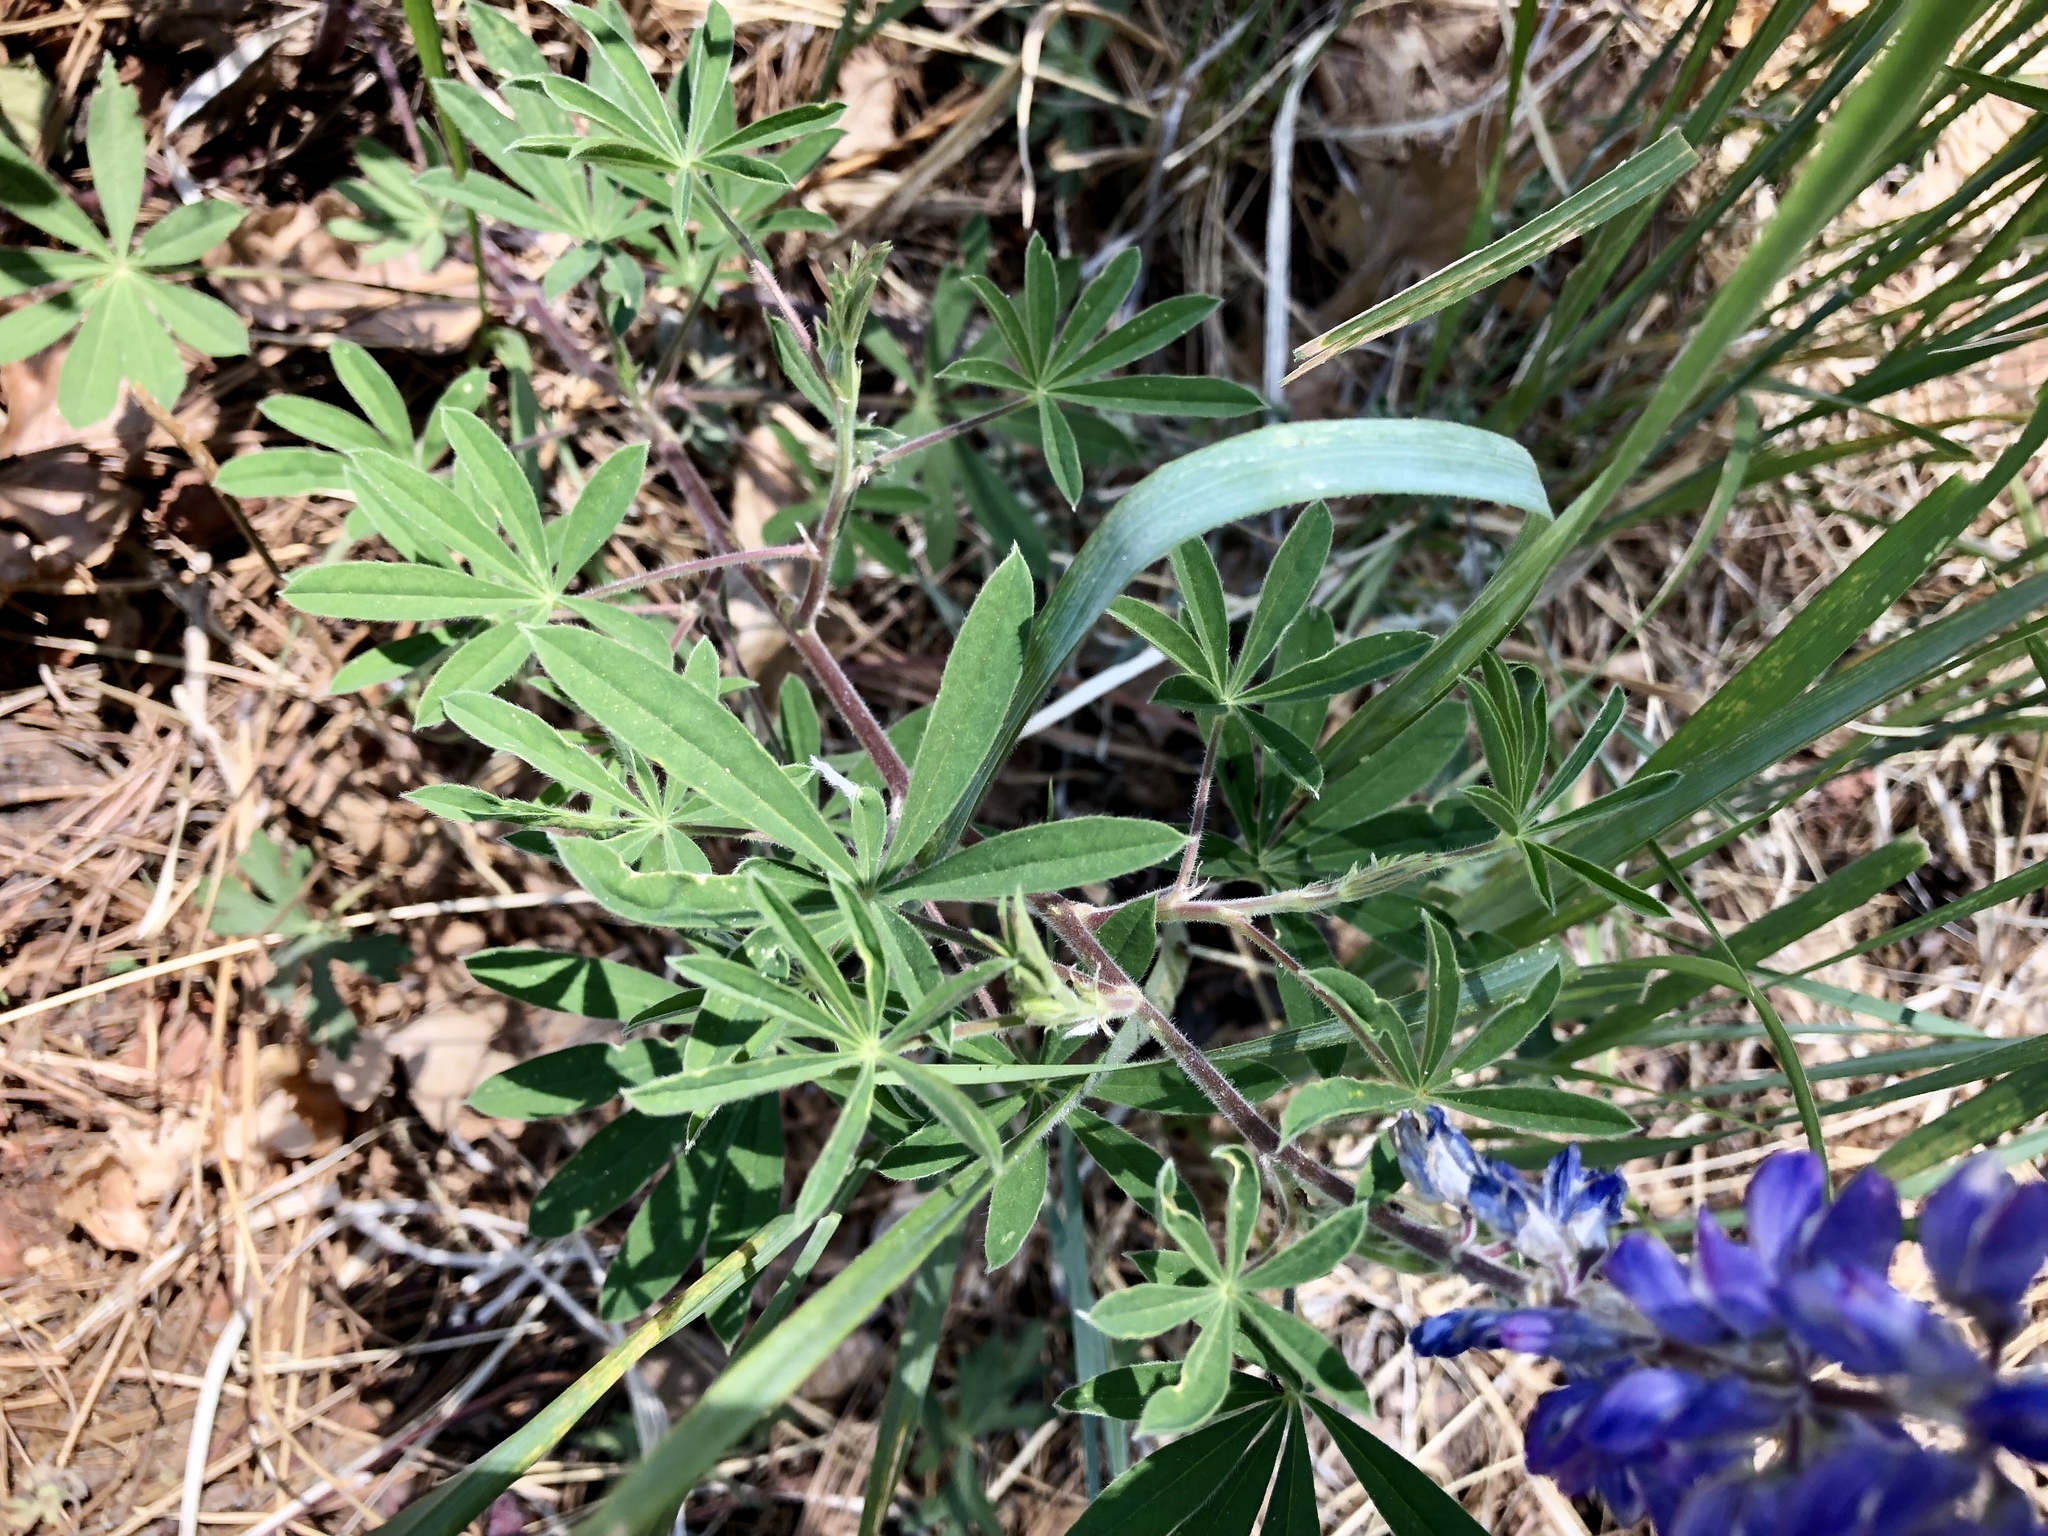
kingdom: Plantae
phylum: Tracheophyta
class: Magnoliopsida
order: Fabales
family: Fabaceae
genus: Lupinus
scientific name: Lupinus argenteus
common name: Silvery lupine
